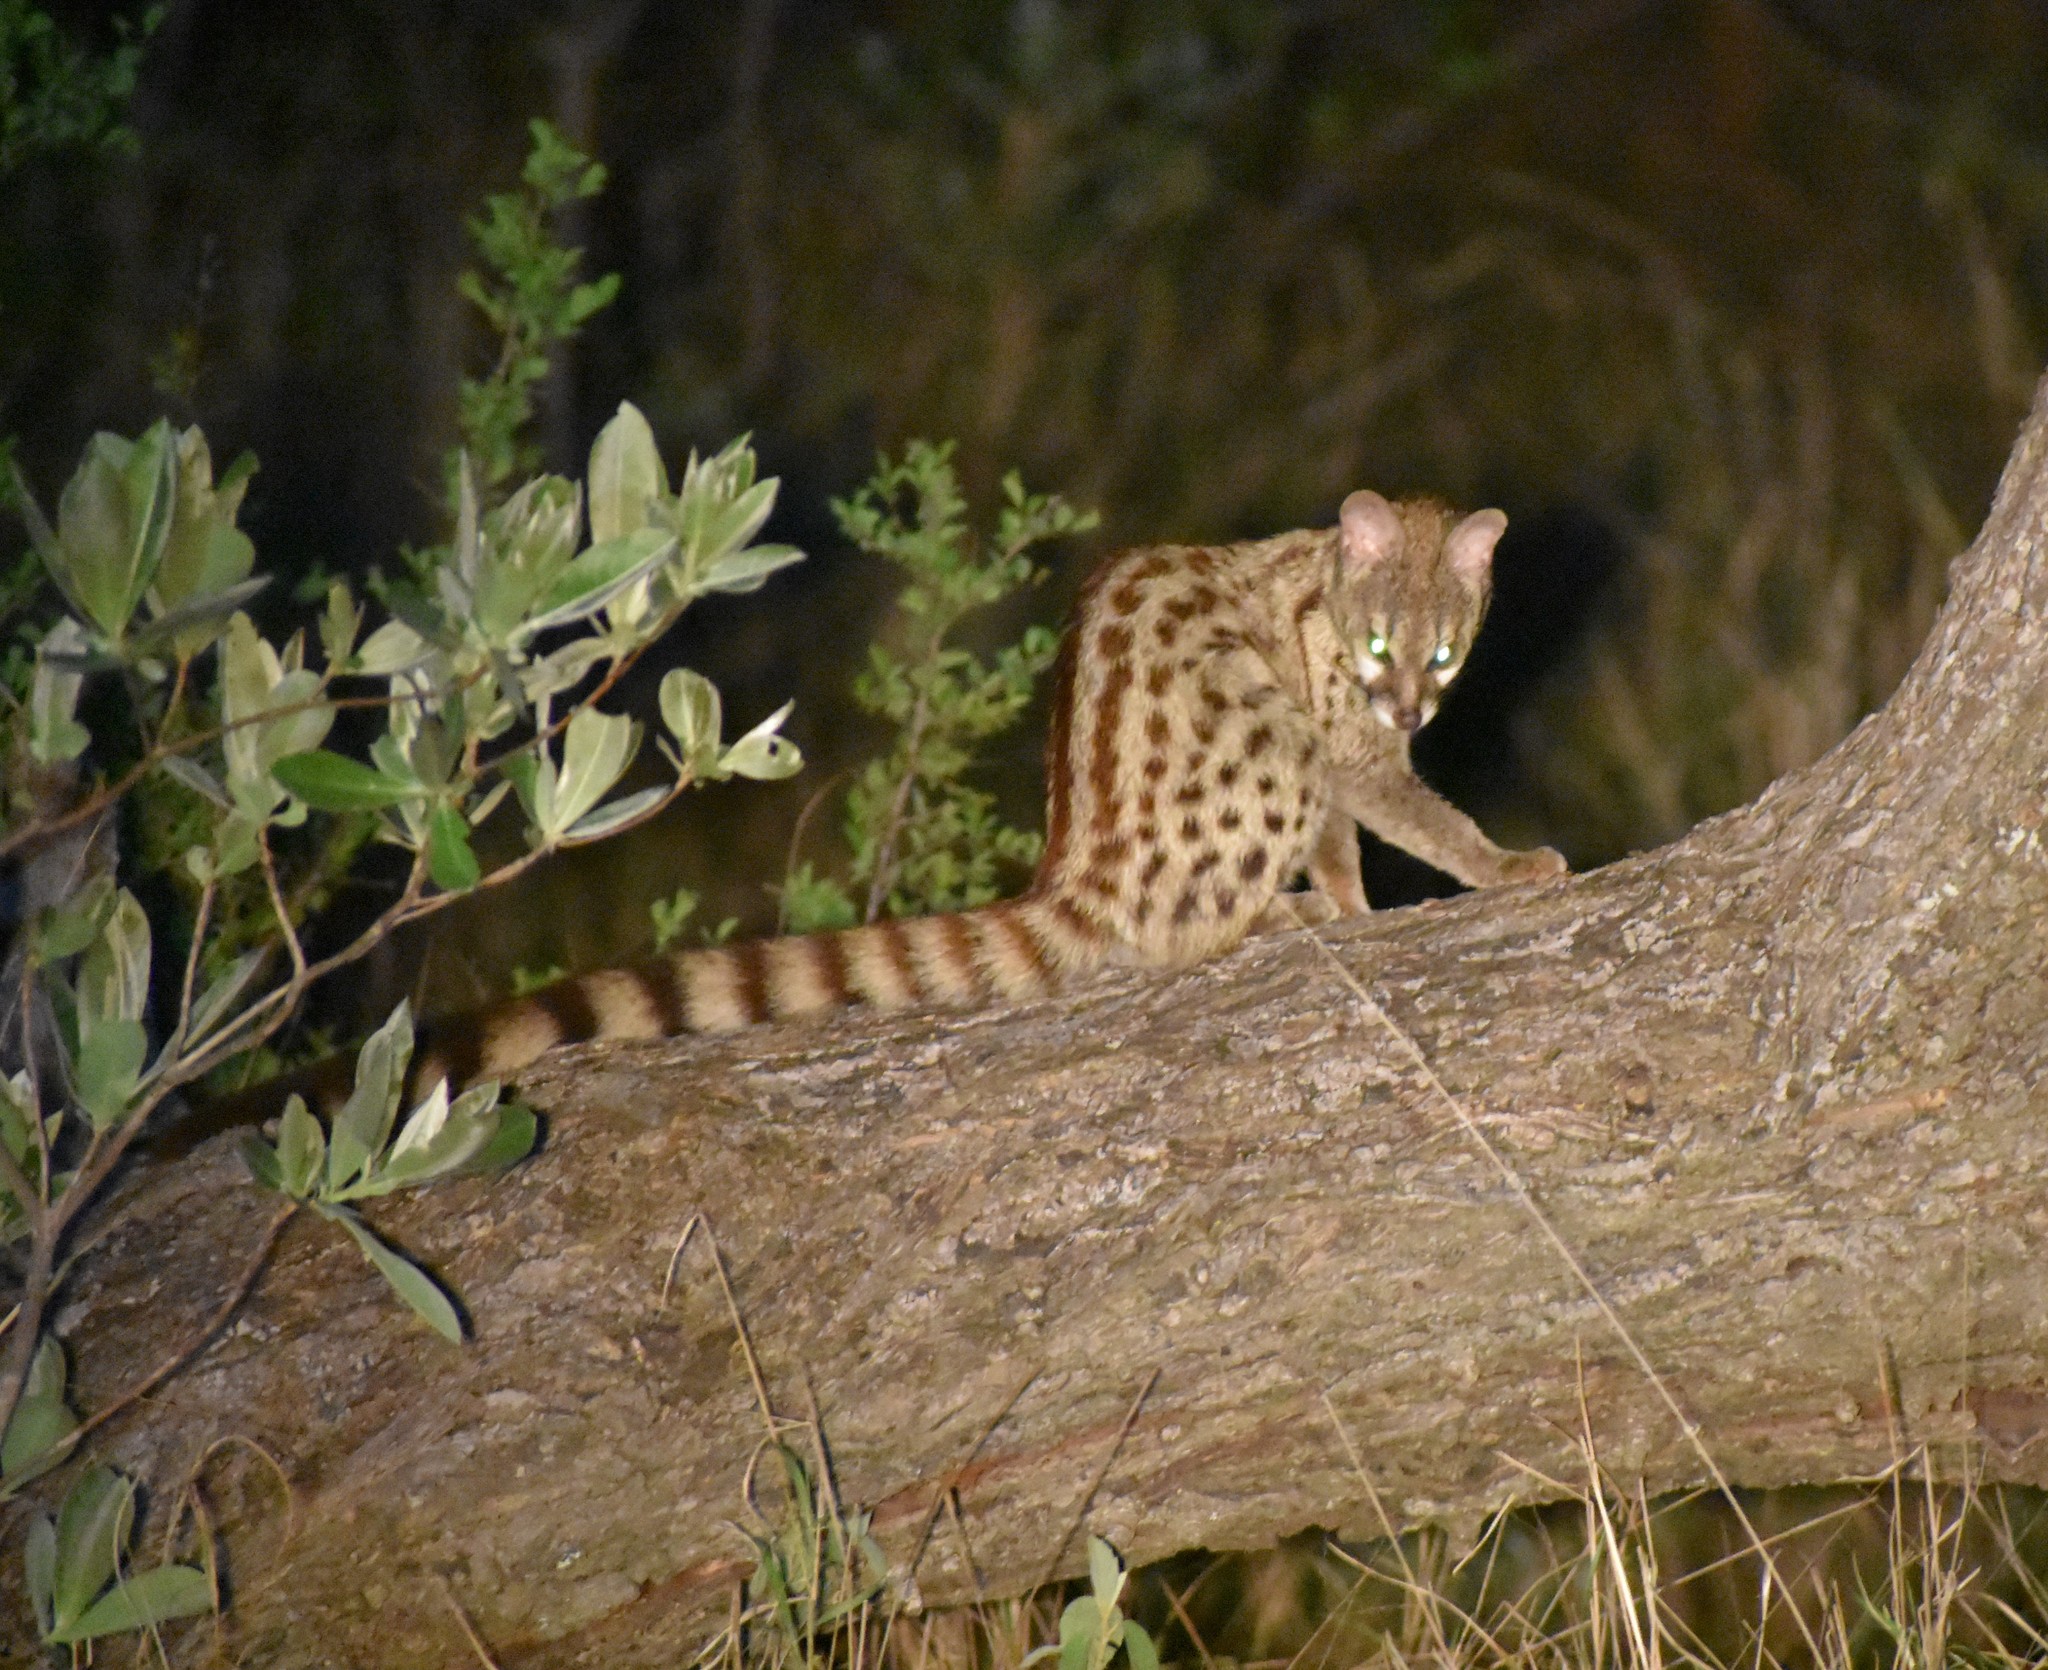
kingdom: Animalia
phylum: Chordata
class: Mammalia
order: Carnivora
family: Viverridae
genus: Genetta
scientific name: Genetta maculata
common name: Rusty-spotted genet
